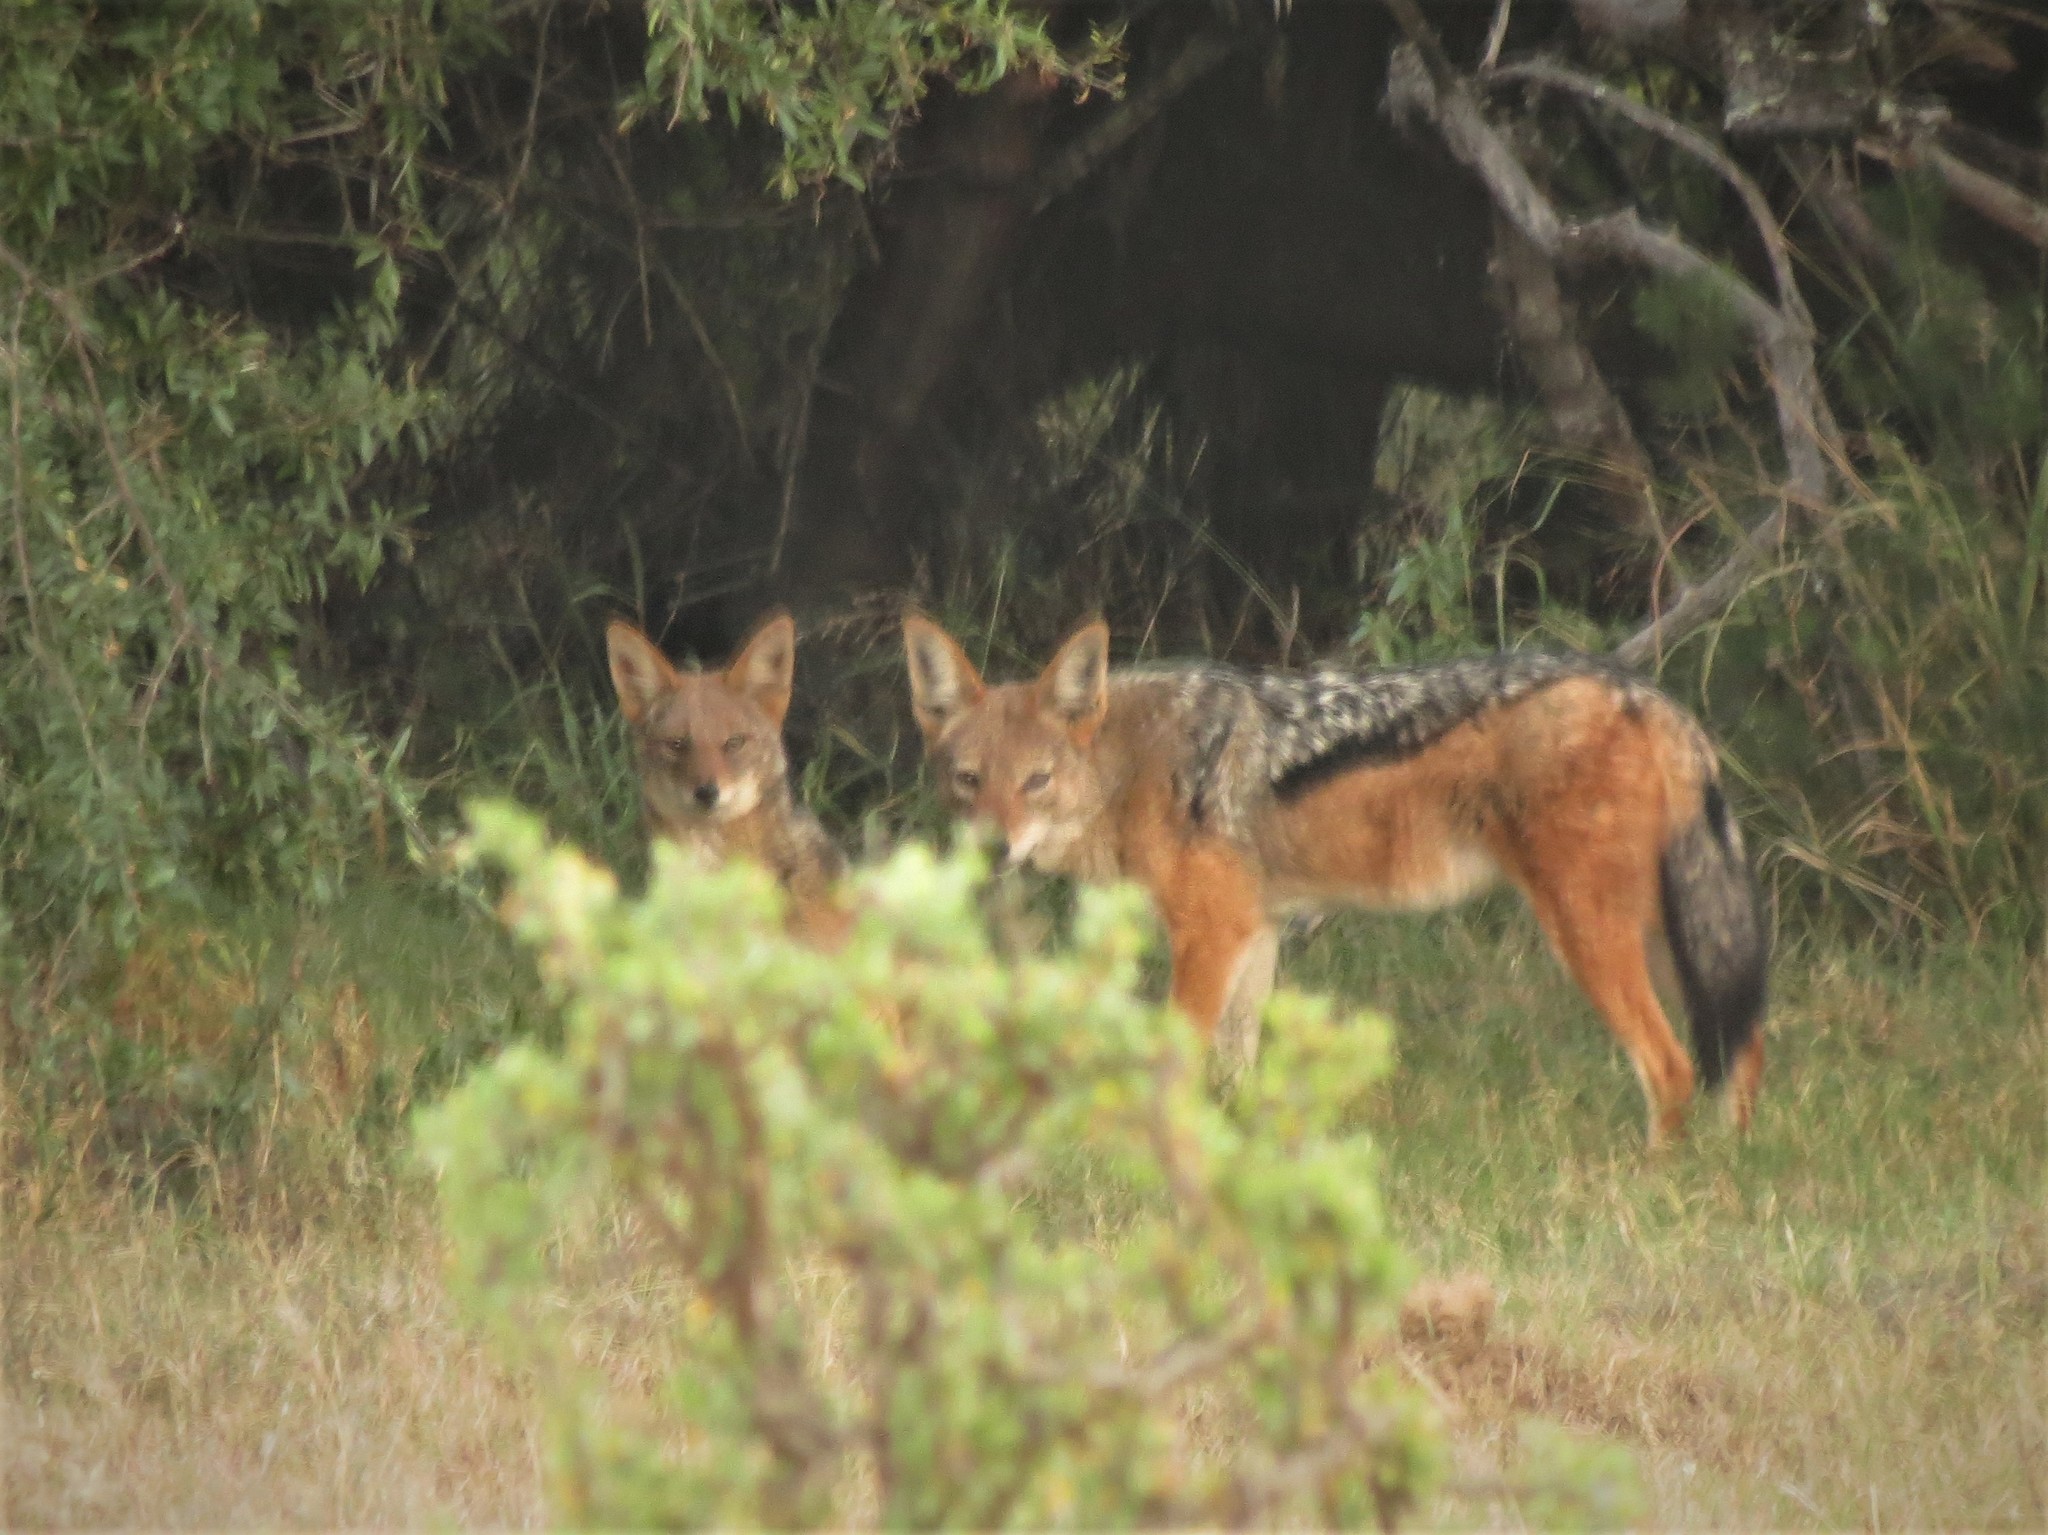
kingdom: Animalia
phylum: Chordata
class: Mammalia
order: Carnivora
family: Canidae
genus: Lupulella
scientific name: Lupulella
